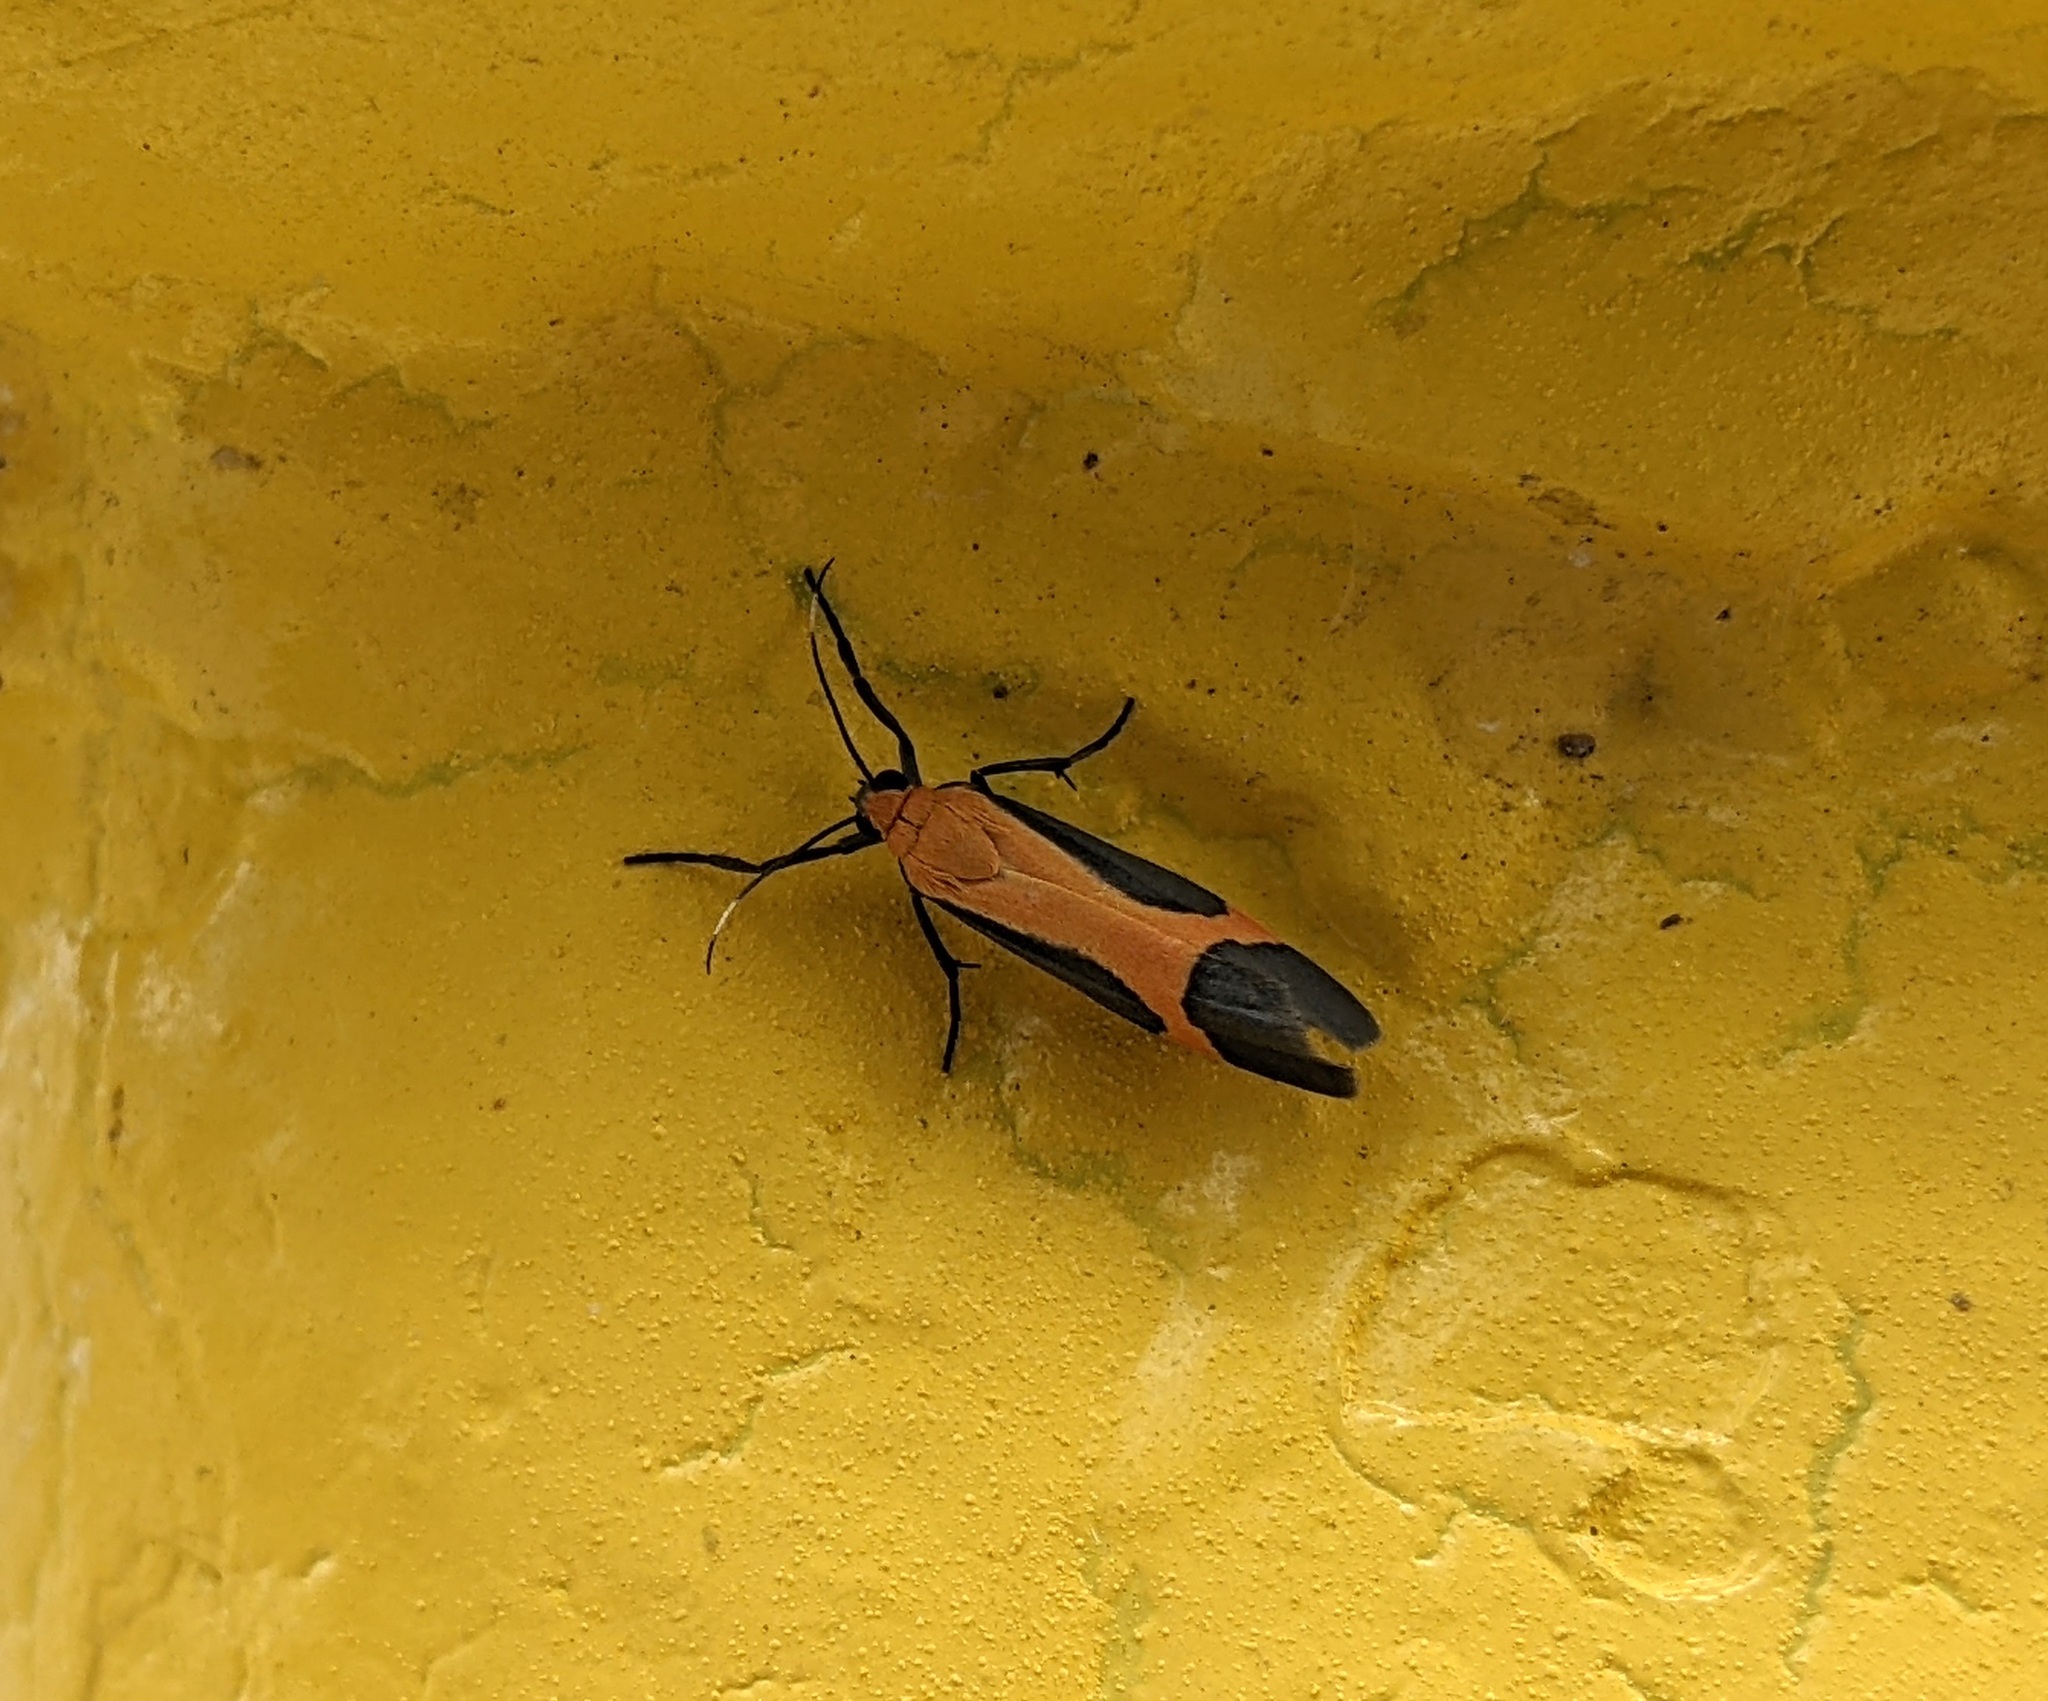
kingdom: Animalia
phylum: Arthropoda
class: Insecta
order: Lepidoptera
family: Erebidae
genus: Cisthene
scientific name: Cisthene angelus
